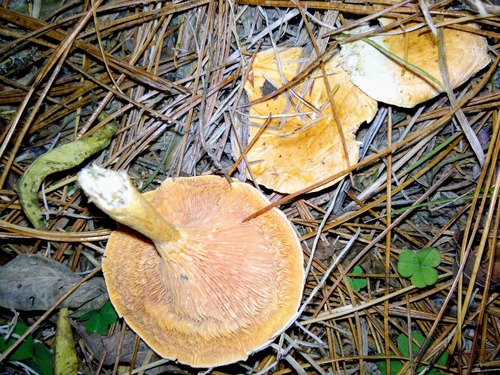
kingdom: Fungi
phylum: Basidiomycota
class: Agaricomycetes
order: Boletales
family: Hygrophoropsidaceae
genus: Hygrophoropsis
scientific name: Hygrophoropsis aurantiaca
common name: False chanterelle
